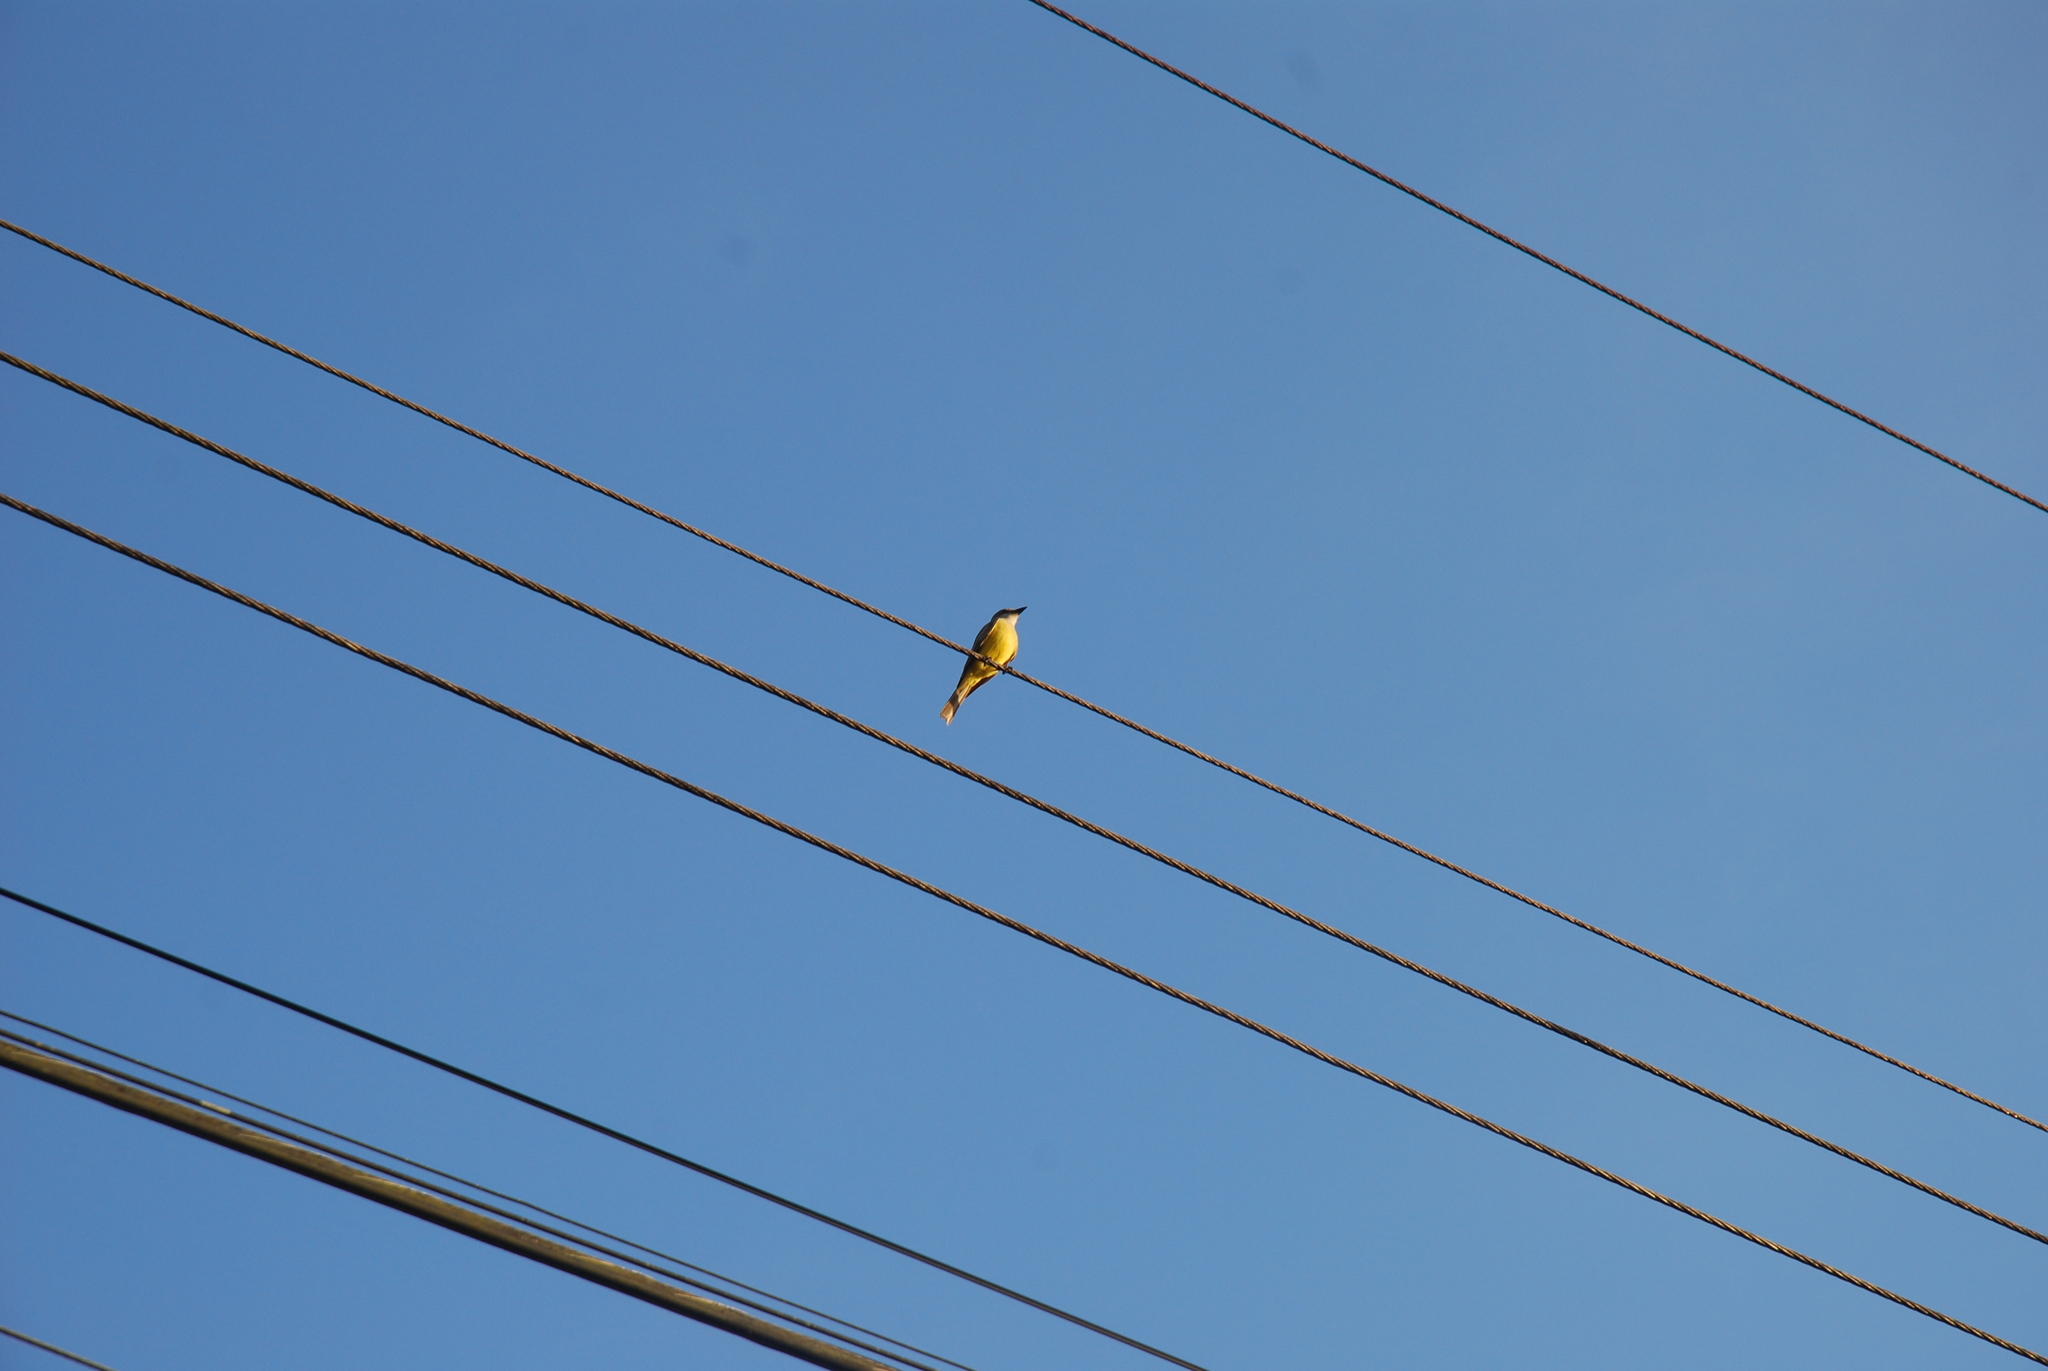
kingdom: Animalia
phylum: Chordata
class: Aves
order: Passeriformes
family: Tyrannidae
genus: Tyrannus
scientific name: Tyrannus melancholicus
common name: Tropical kingbird
